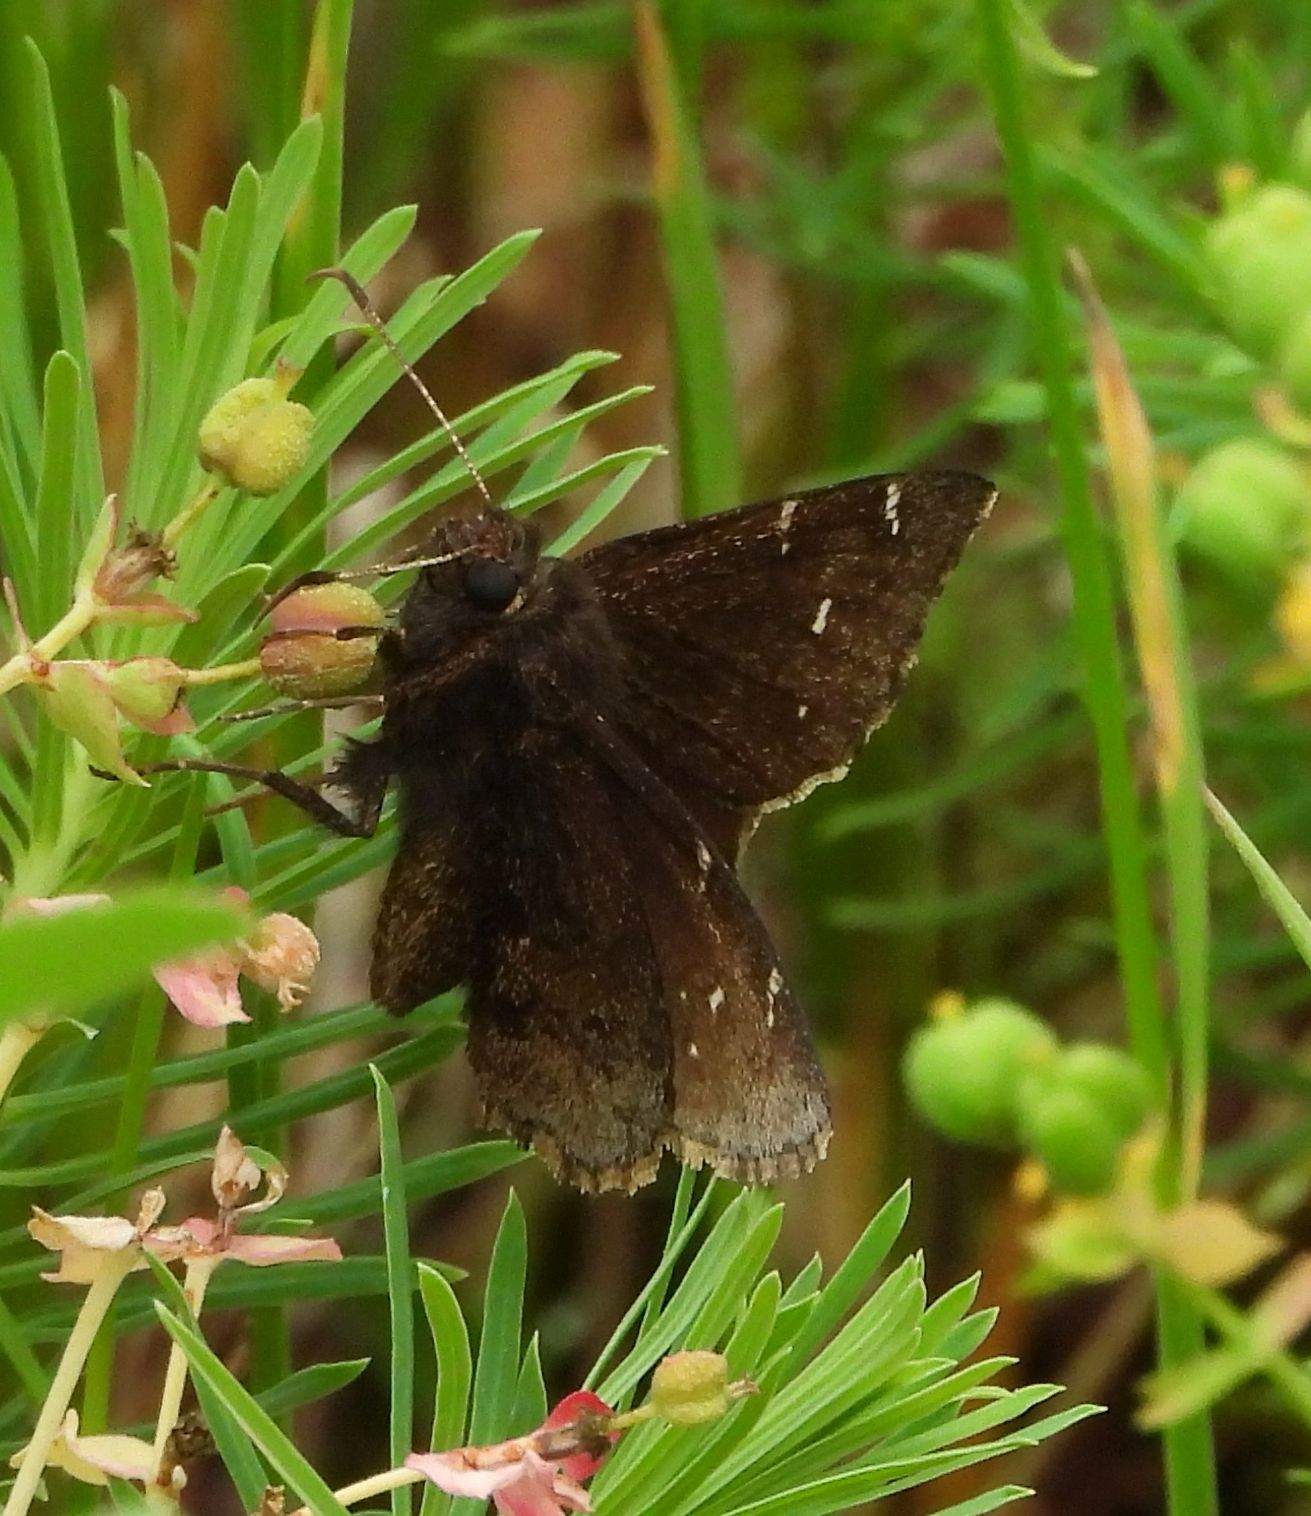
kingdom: Animalia
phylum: Arthropoda
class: Insecta
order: Lepidoptera
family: Hesperiidae
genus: Thorybes
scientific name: Thorybes pylades
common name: Northern cloudywing
